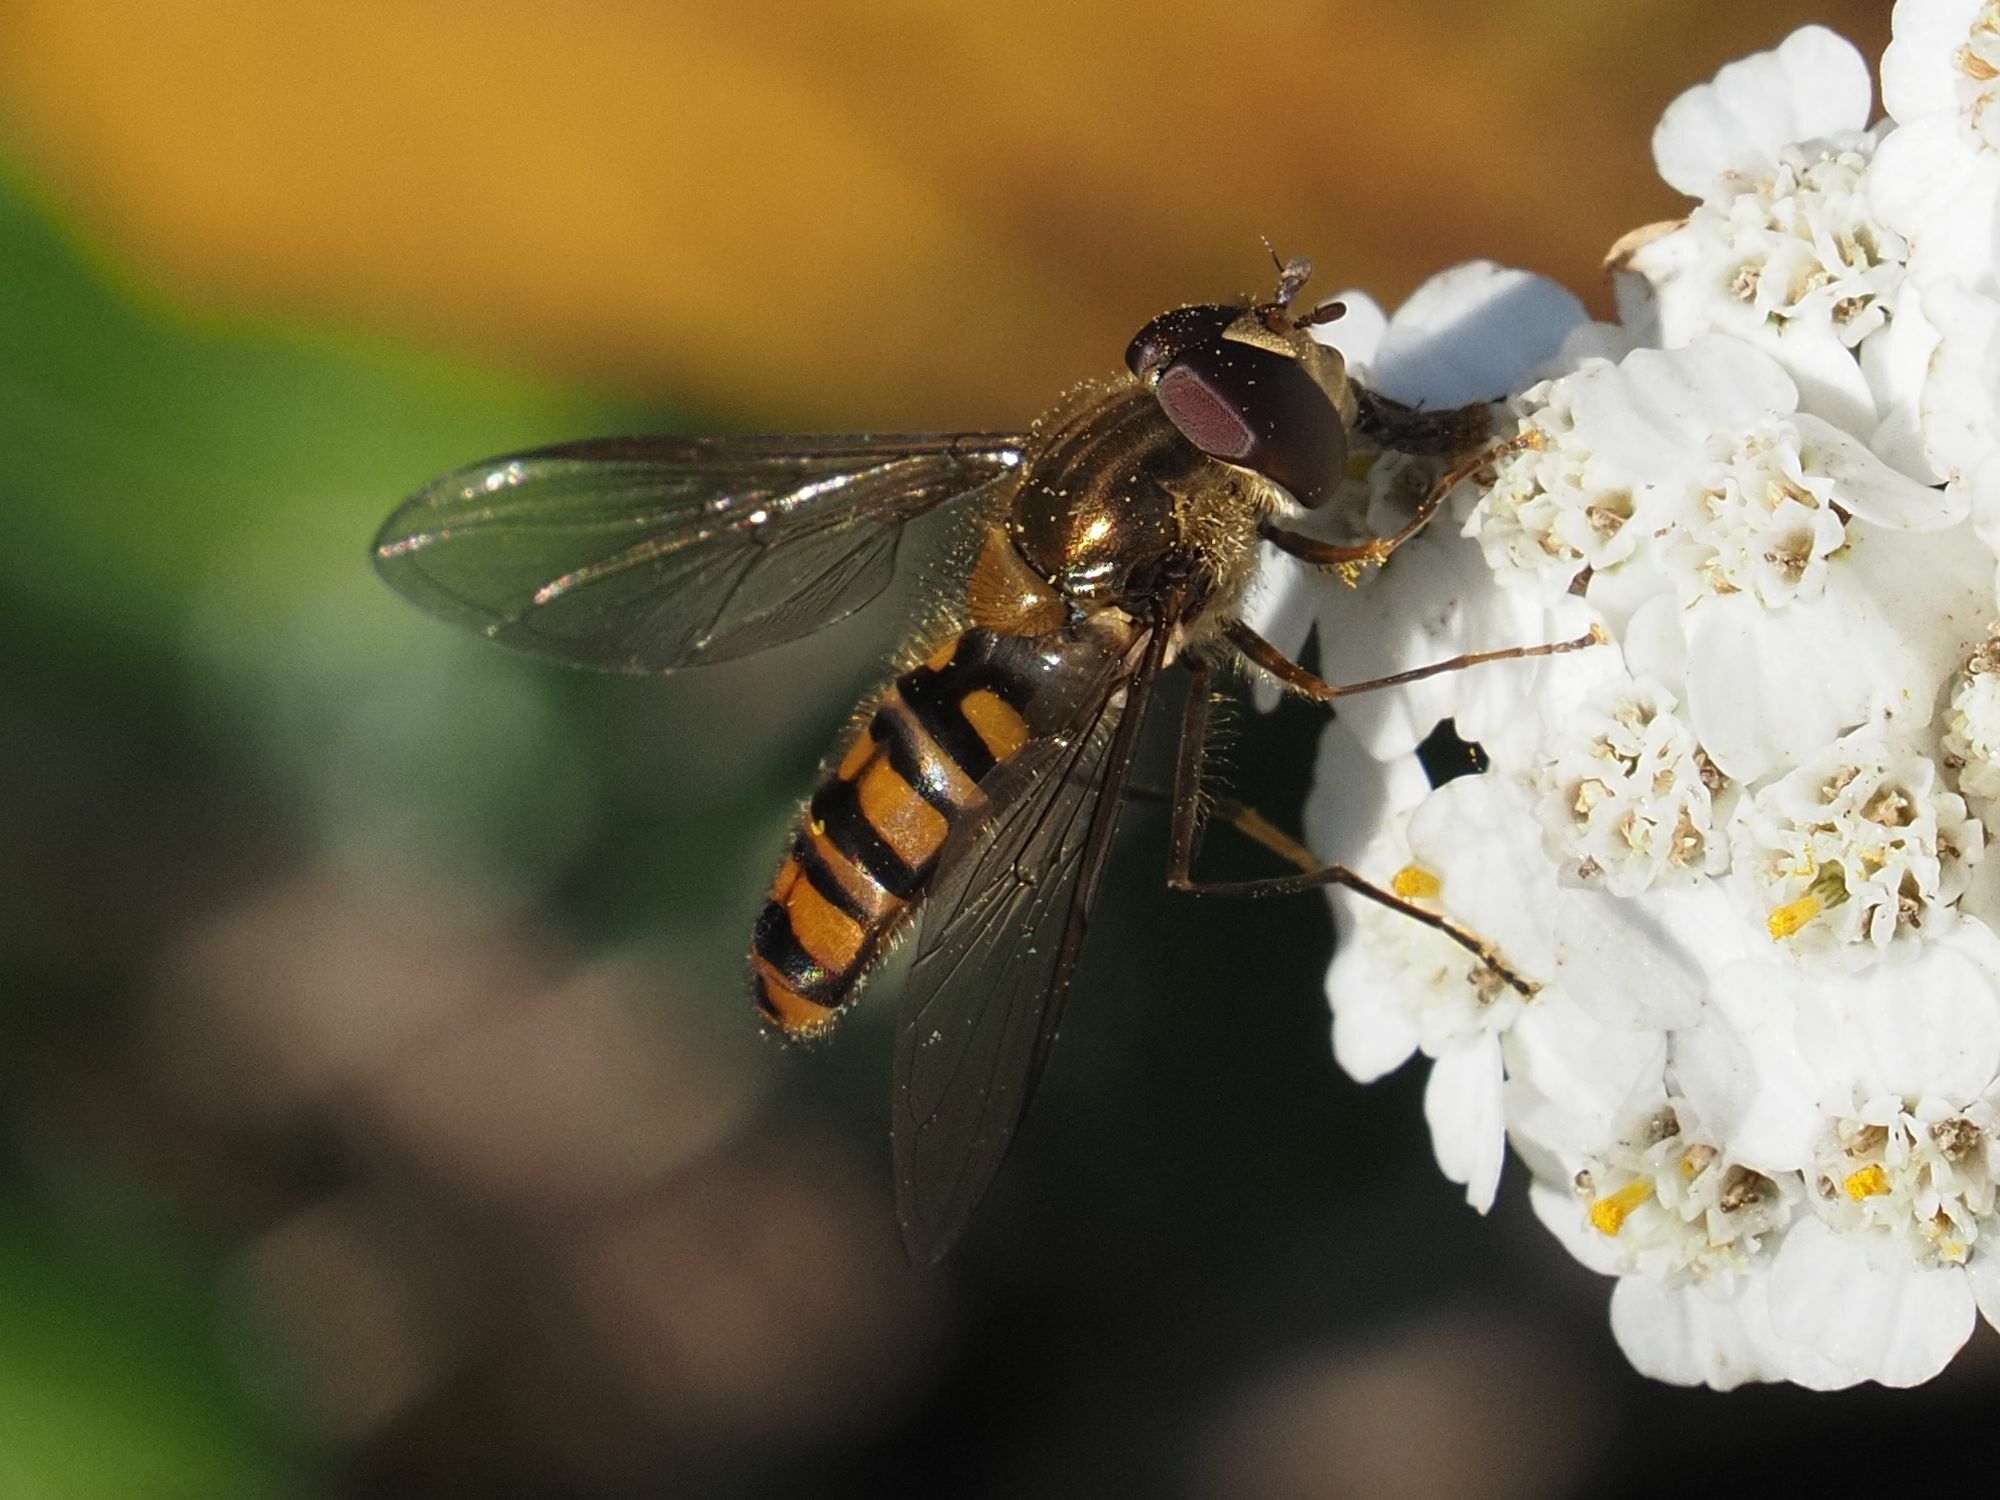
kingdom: Animalia
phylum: Arthropoda
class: Insecta
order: Diptera
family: Syrphidae
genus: Episyrphus
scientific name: Episyrphus balteatus
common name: Marmalade hoverfly
